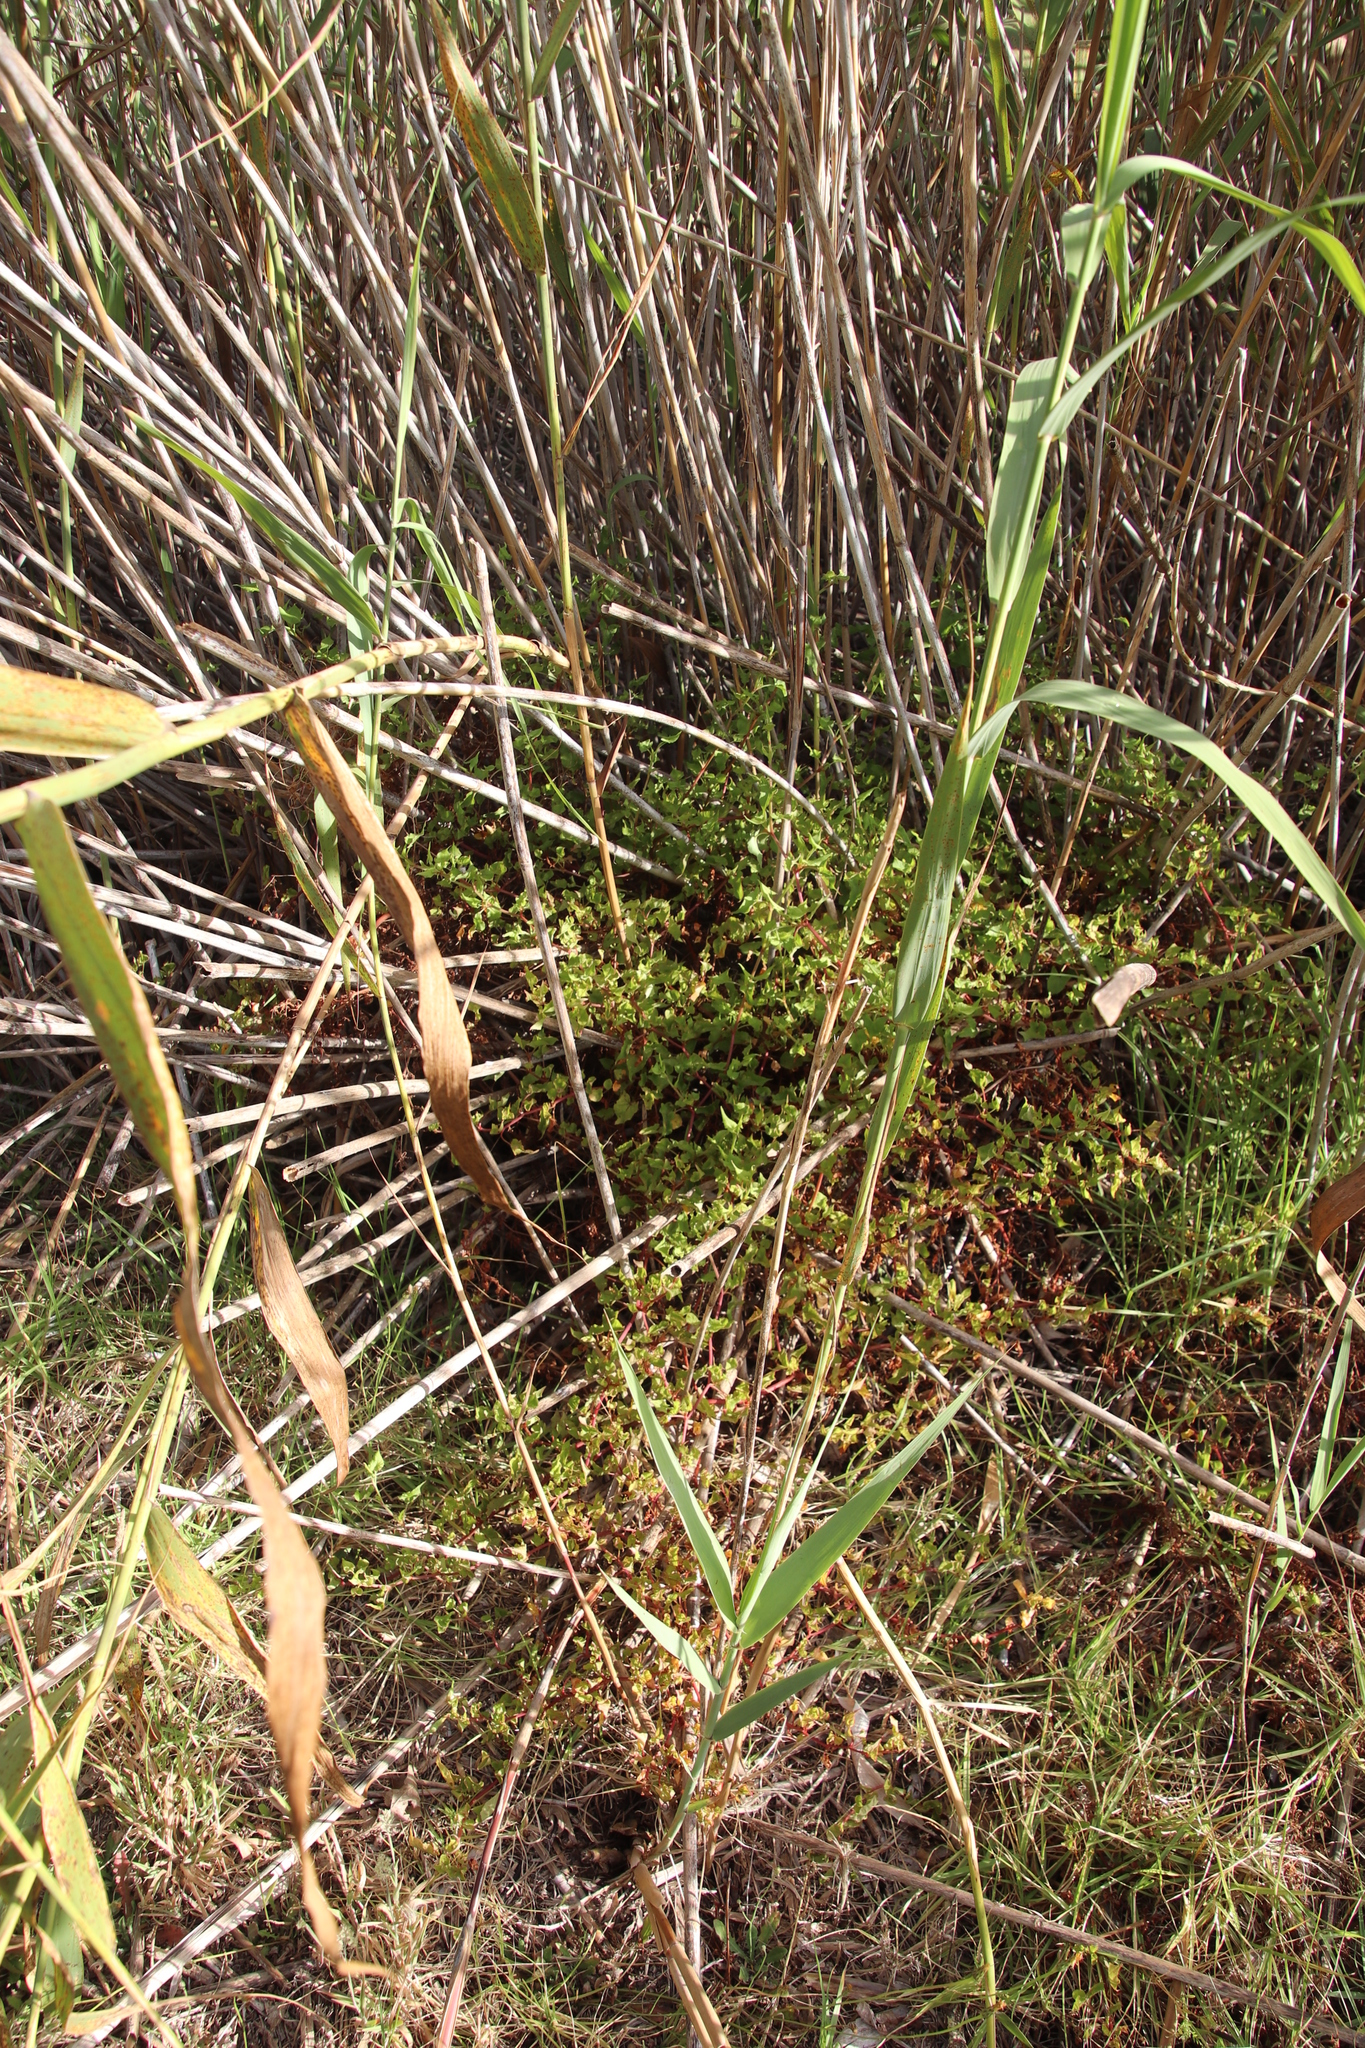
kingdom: Plantae
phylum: Tracheophyta
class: Magnoliopsida
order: Caryophyllales
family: Polygonaceae
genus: Rumex
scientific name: Rumex sagittatus
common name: Climbing dock
